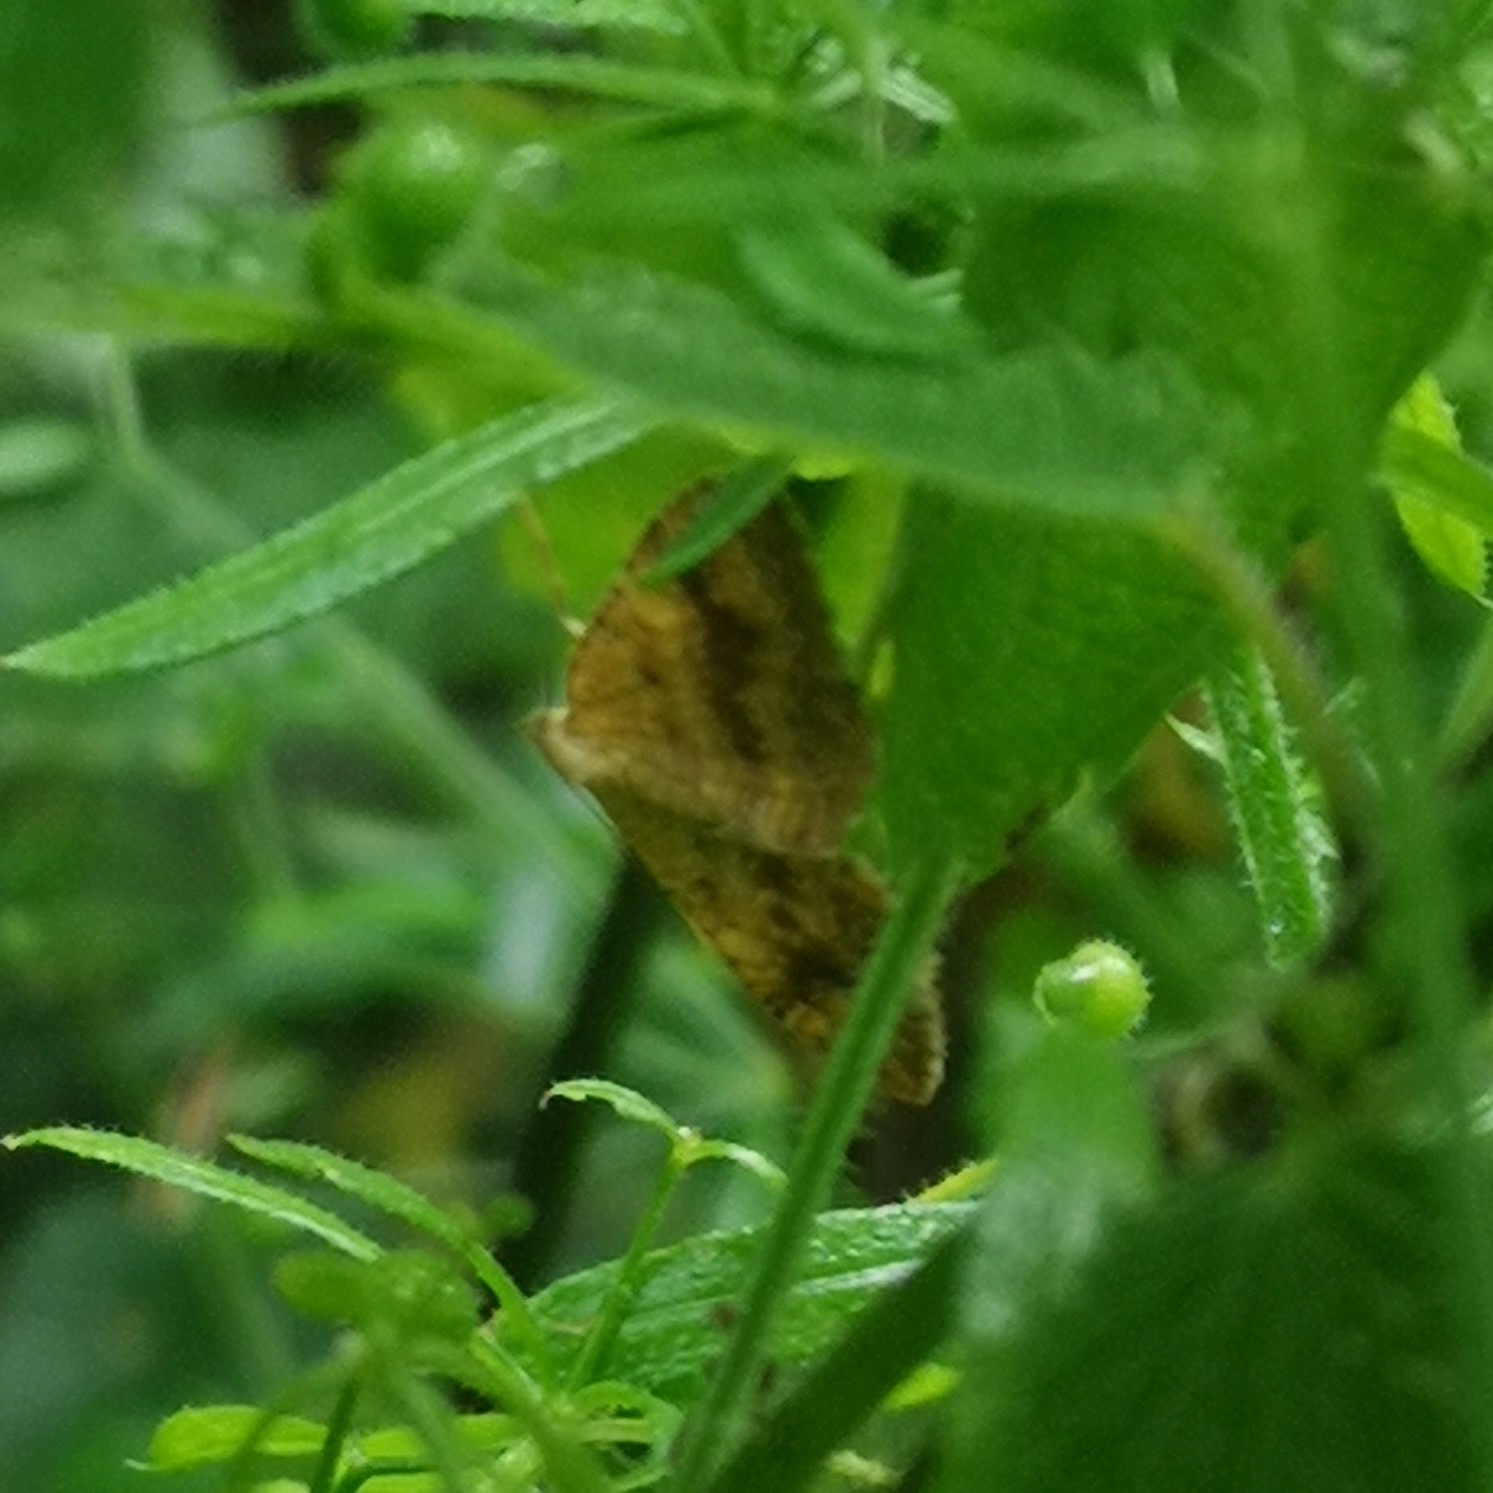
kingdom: Animalia
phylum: Arthropoda
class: Insecta
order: Lepidoptera
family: Geometridae
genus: Camptogramma
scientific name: Camptogramma bilineata
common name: Yellow shell
